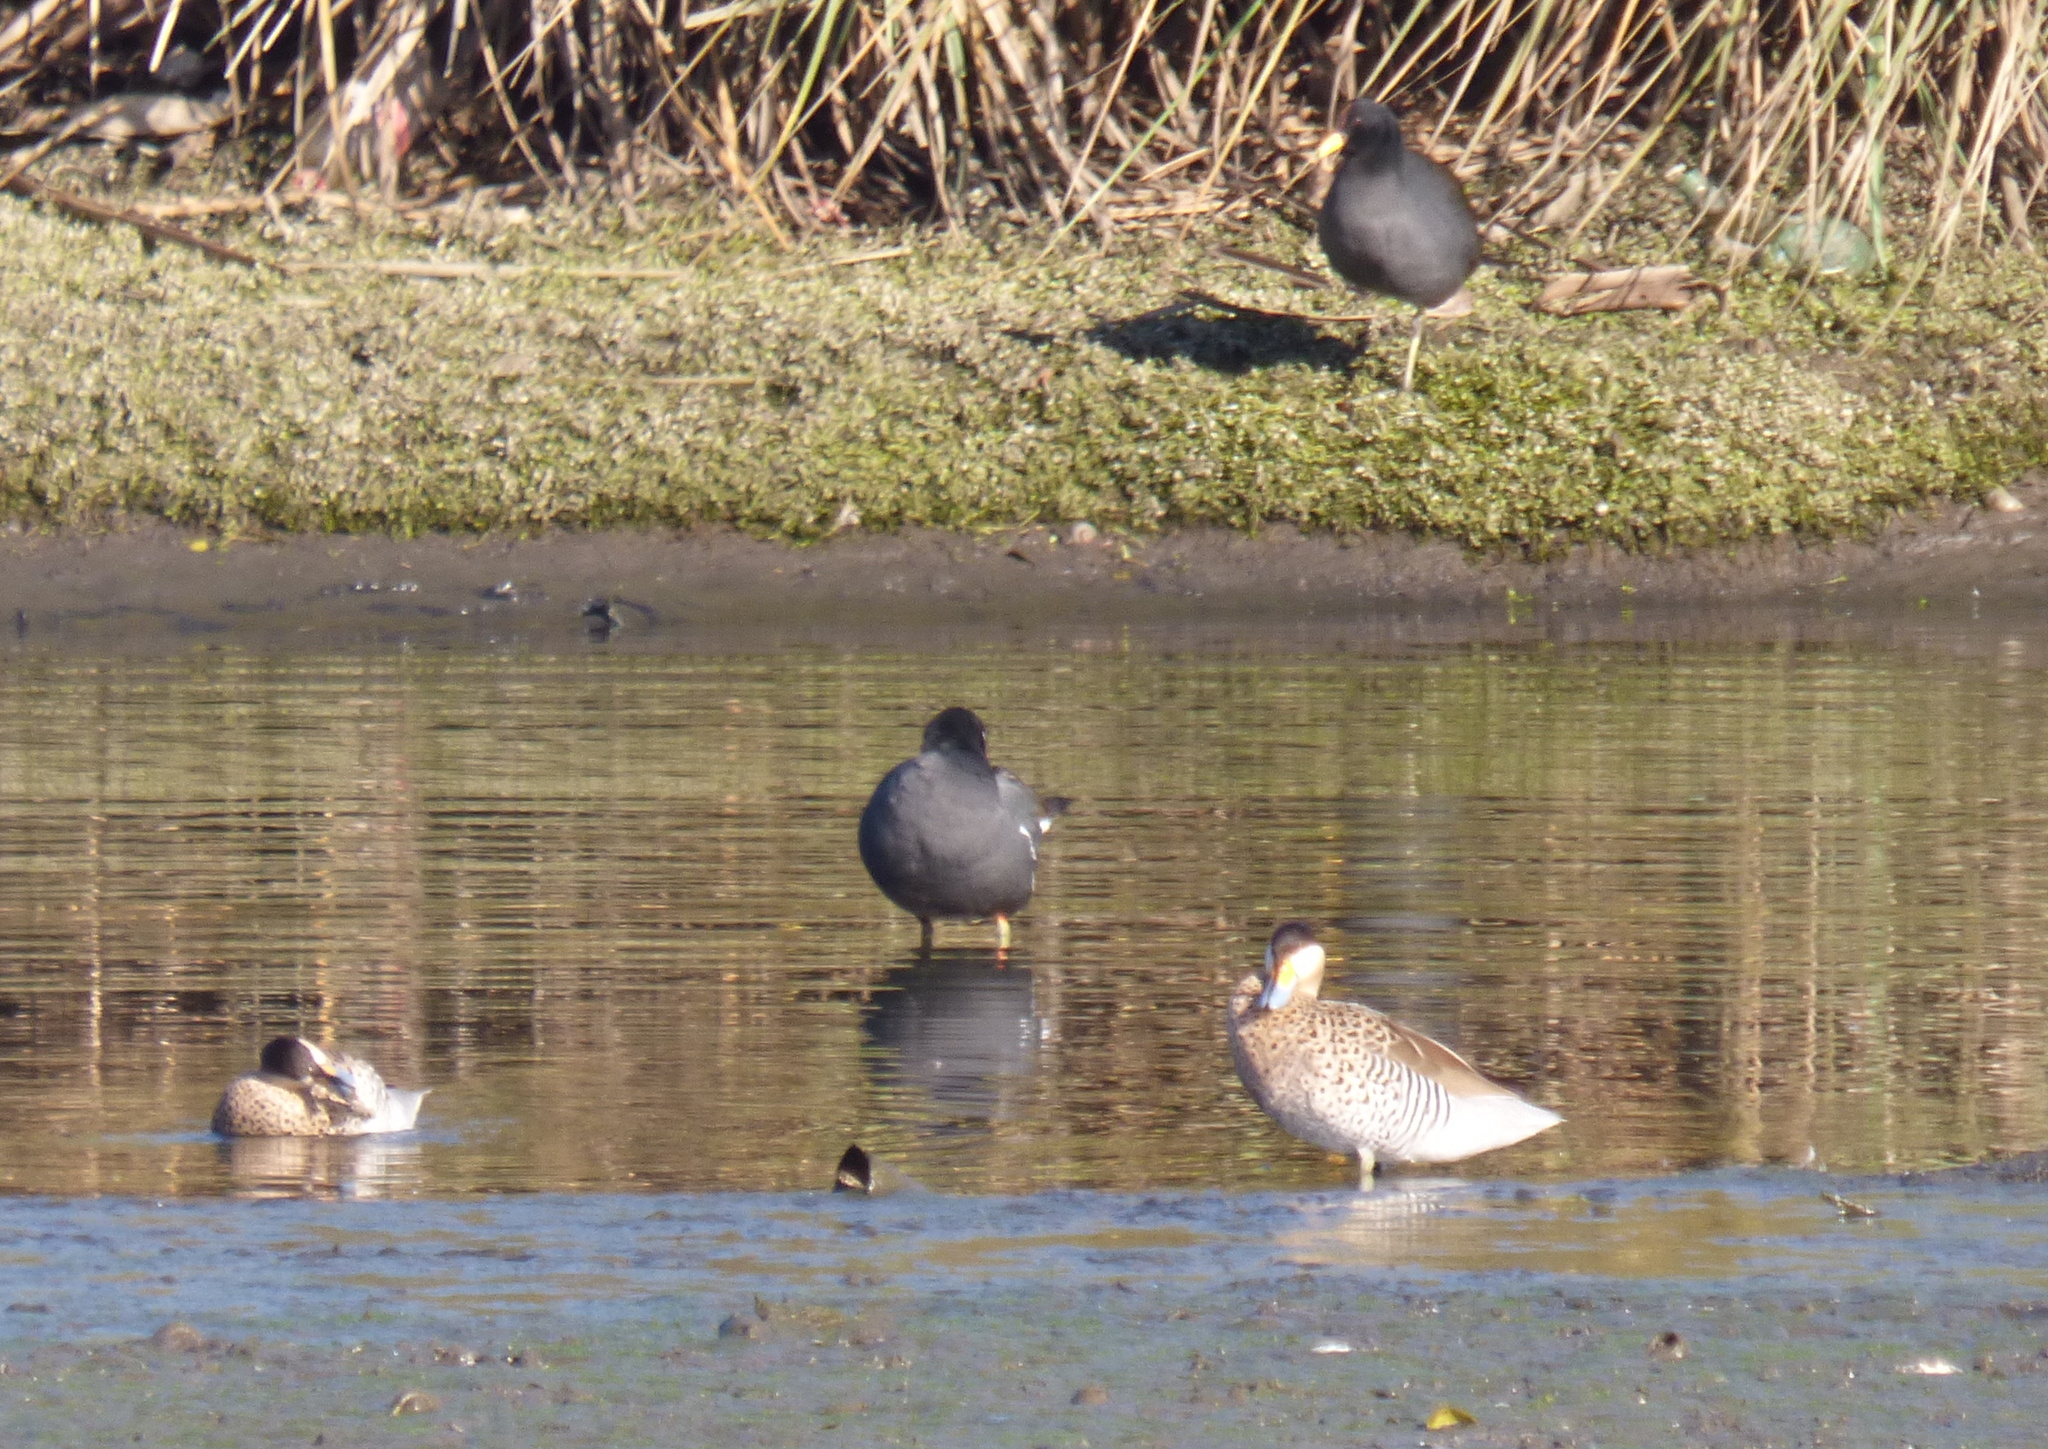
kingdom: Animalia
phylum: Chordata
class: Aves
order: Anseriformes
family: Anatidae
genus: Spatula
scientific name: Spatula versicolor
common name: Silver teal
